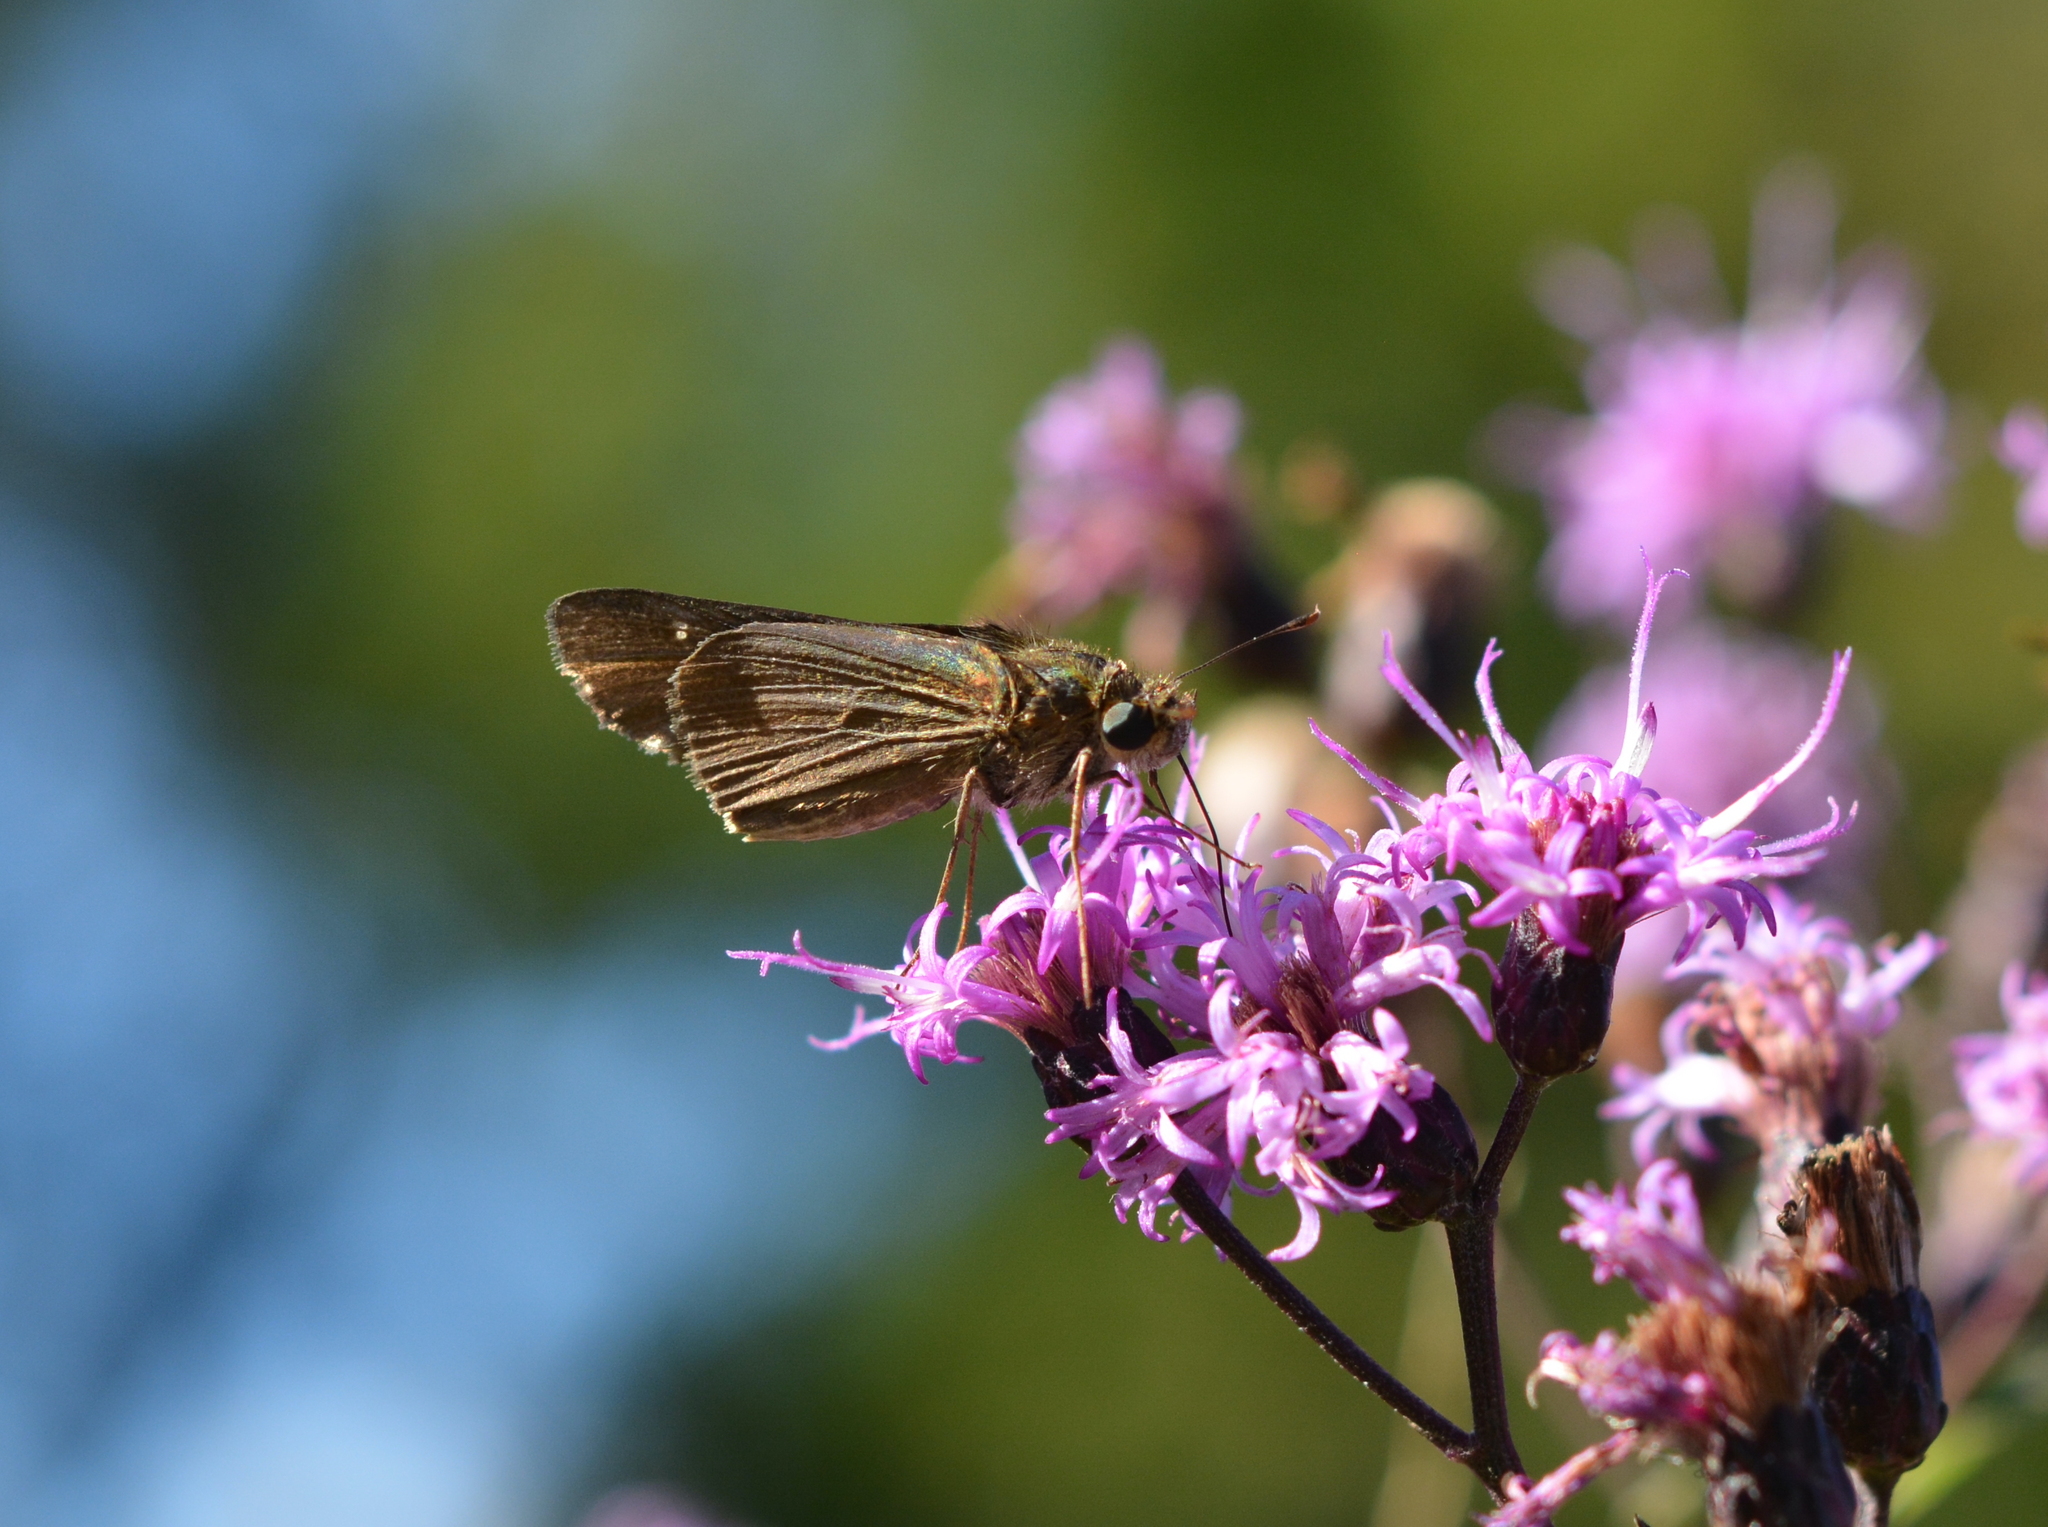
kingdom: Animalia
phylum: Arthropoda
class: Insecta
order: Lepidoptera
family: Hesperiidae
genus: Panoquina
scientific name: Panoquina ocola
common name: Ocola skipper
